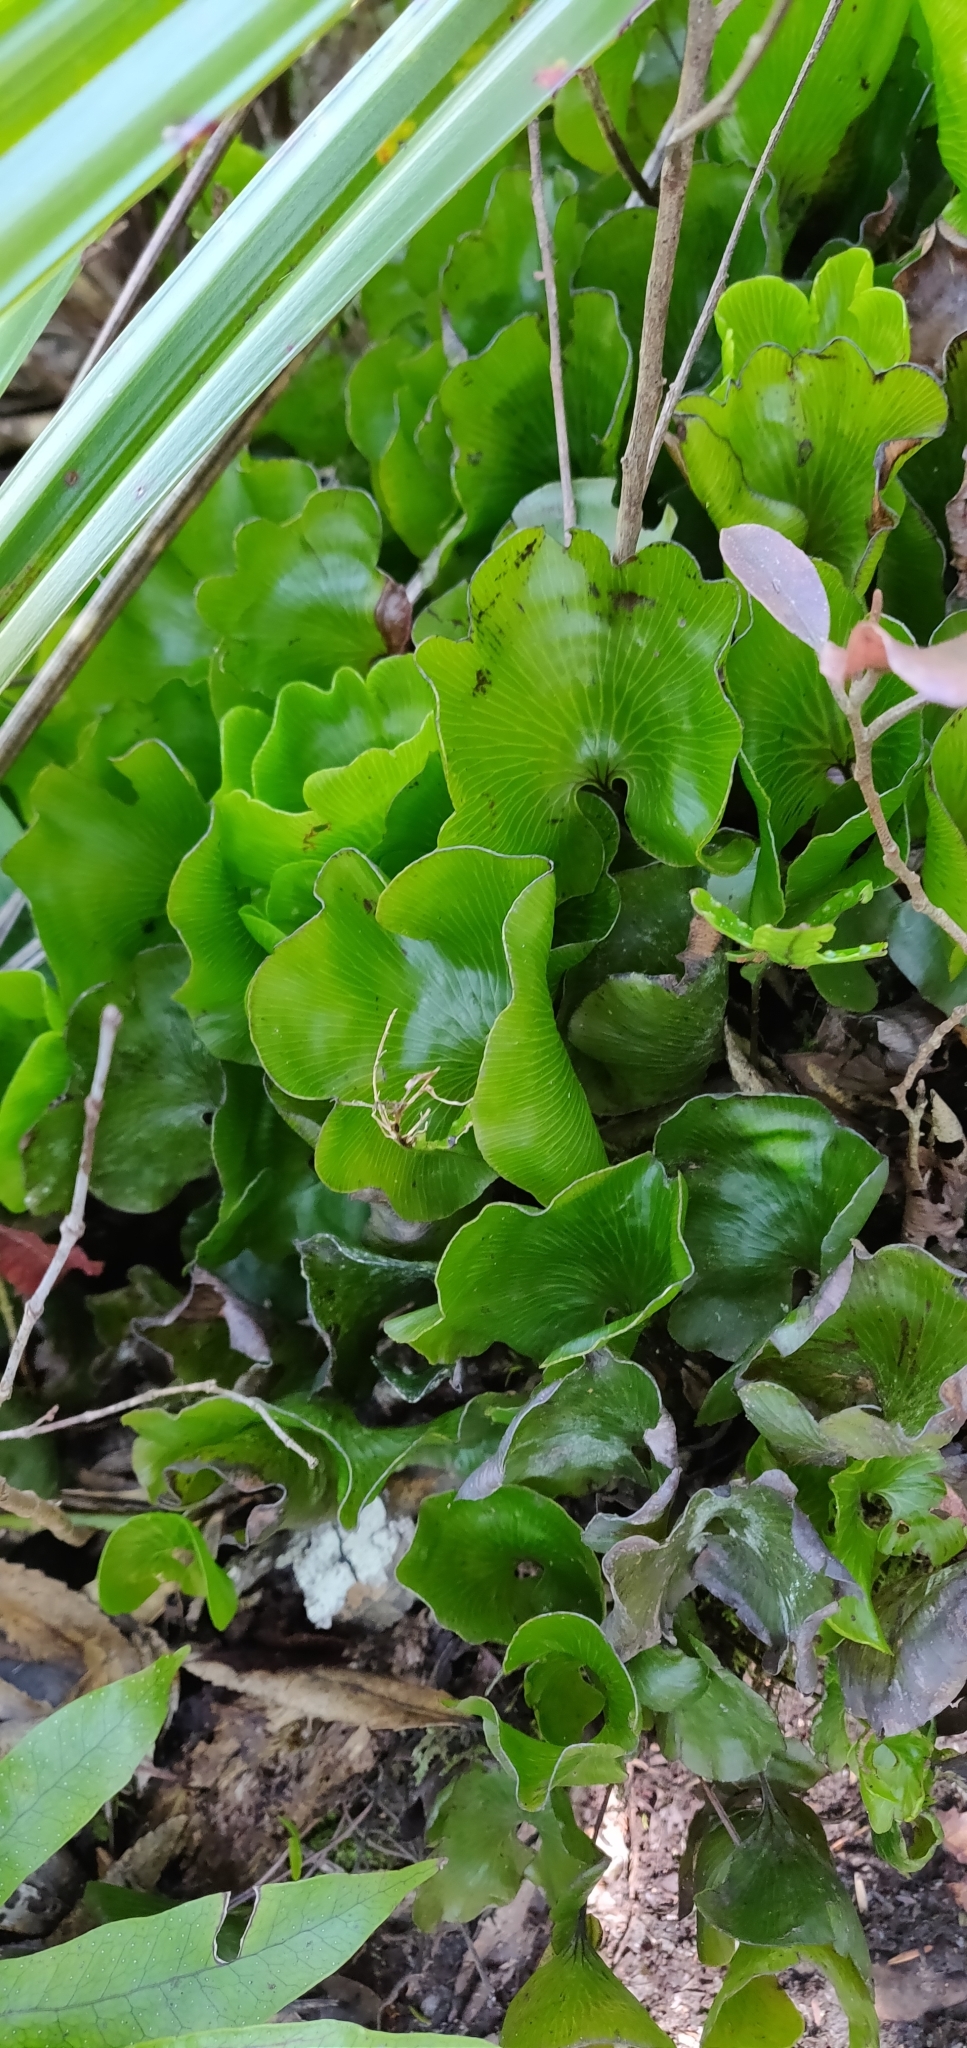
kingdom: Plantae
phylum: Tracheophyta
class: Polypodiopsida
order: Hymenophyllales
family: Hymenophyllaceae
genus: Hymenophyllum
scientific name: Hymenophyllum nephrophyllum
